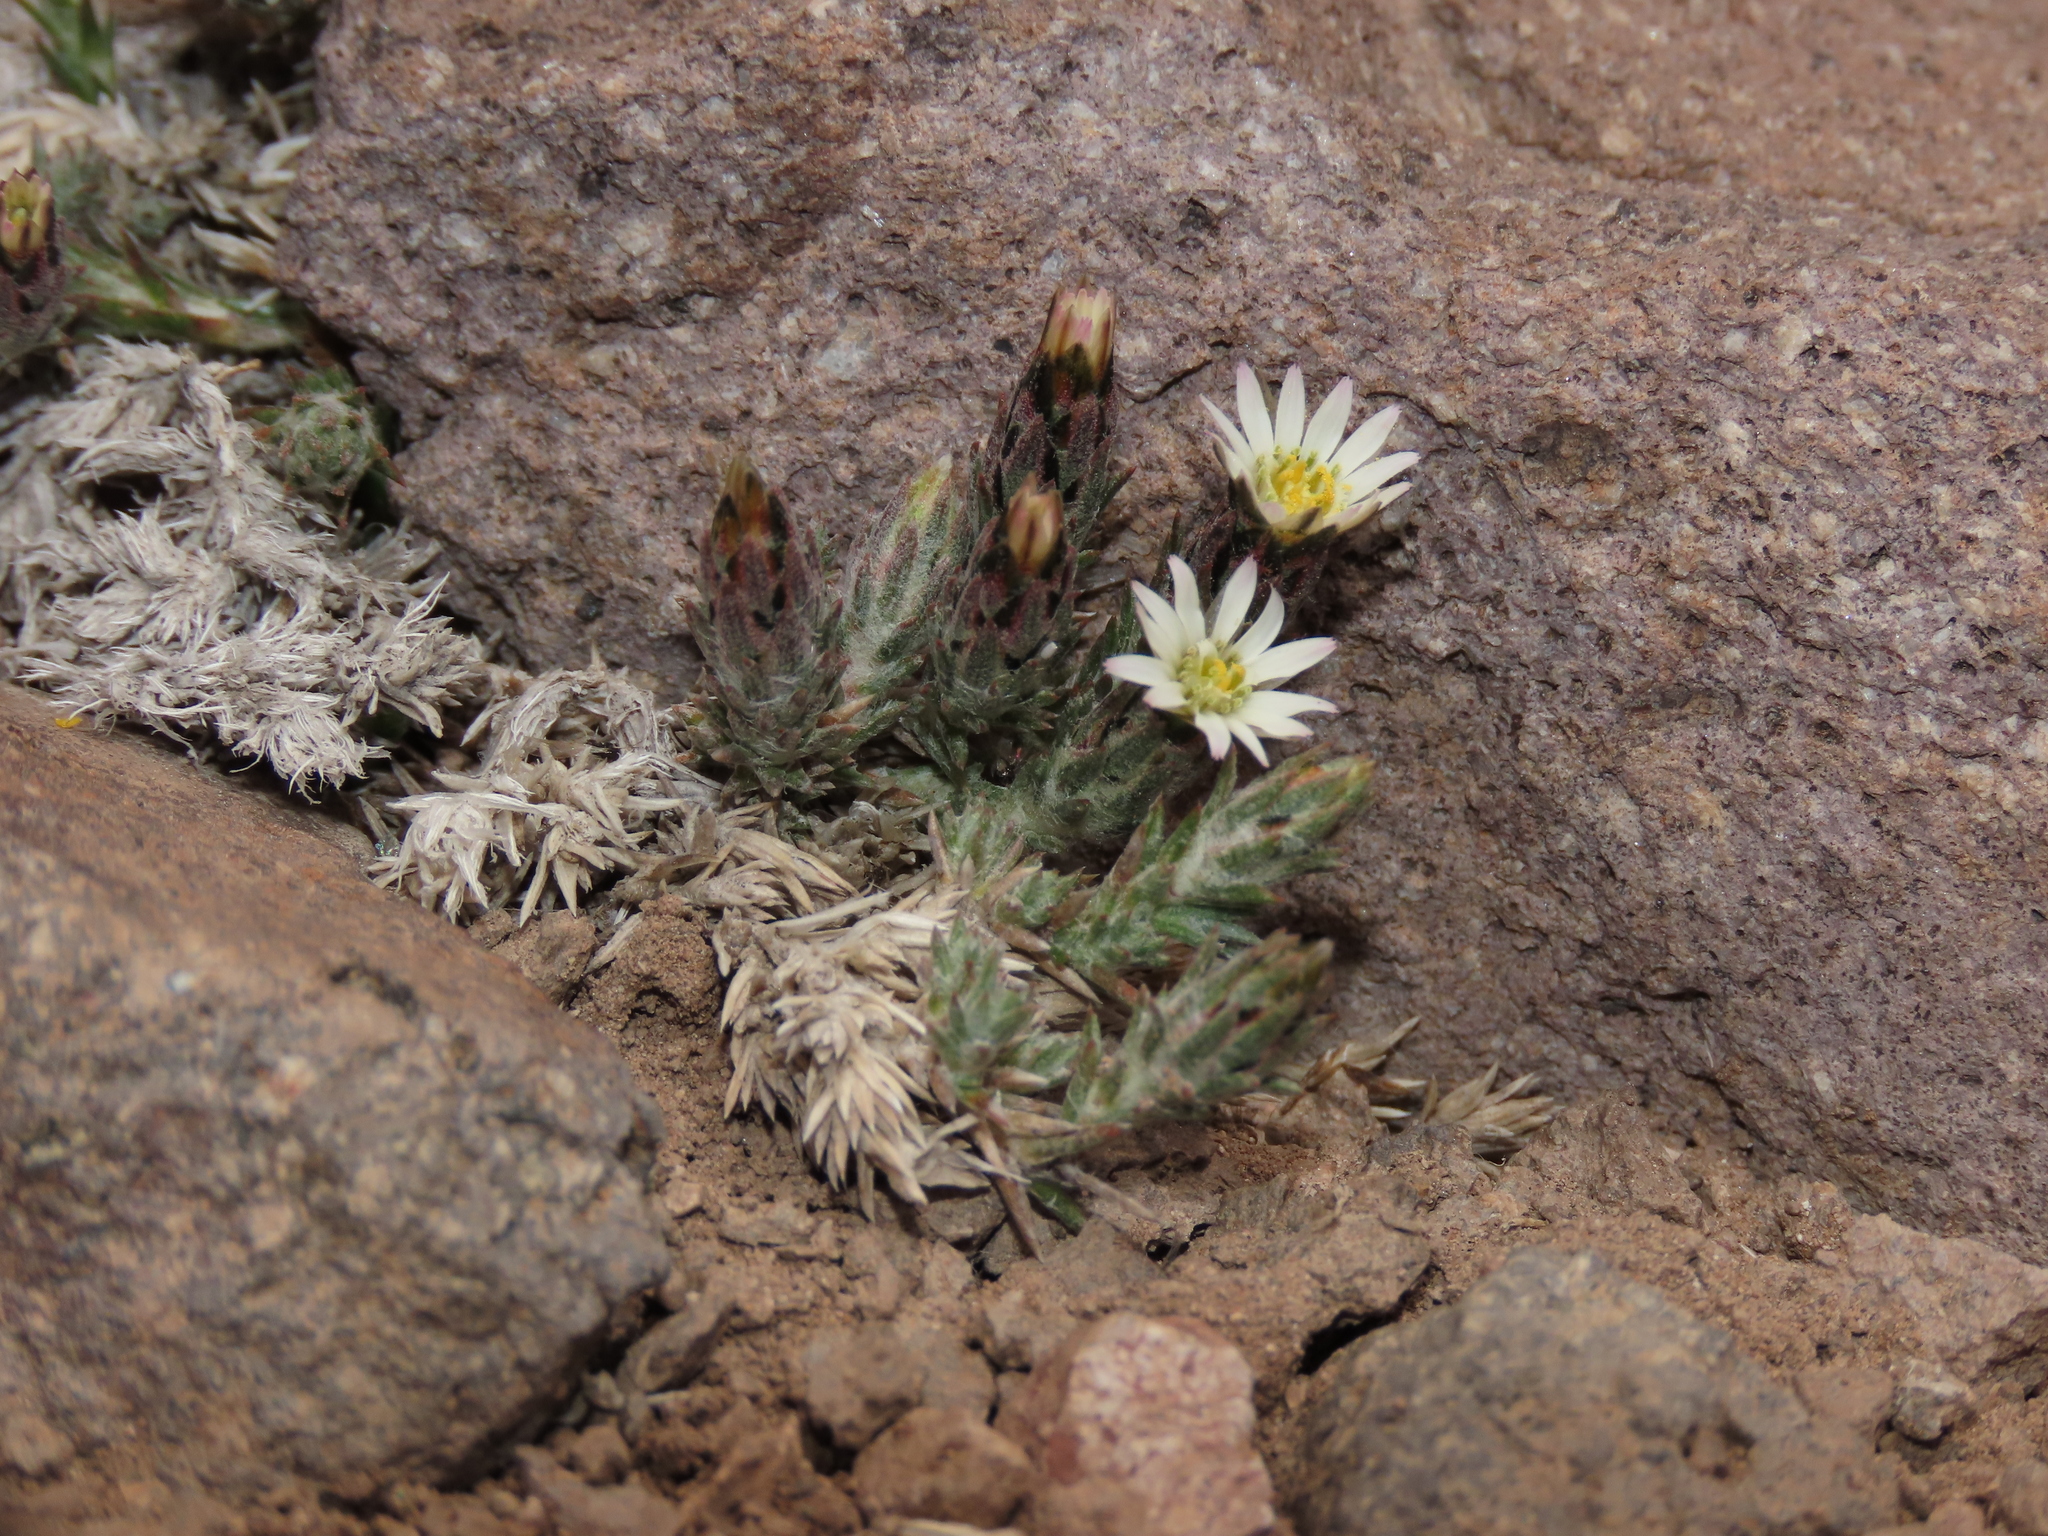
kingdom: Plantae
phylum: Tracheophyta
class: Magnoliopsida
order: Asterales
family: Asteraceae
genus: Oriastrum
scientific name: Oriastrum dioicum
